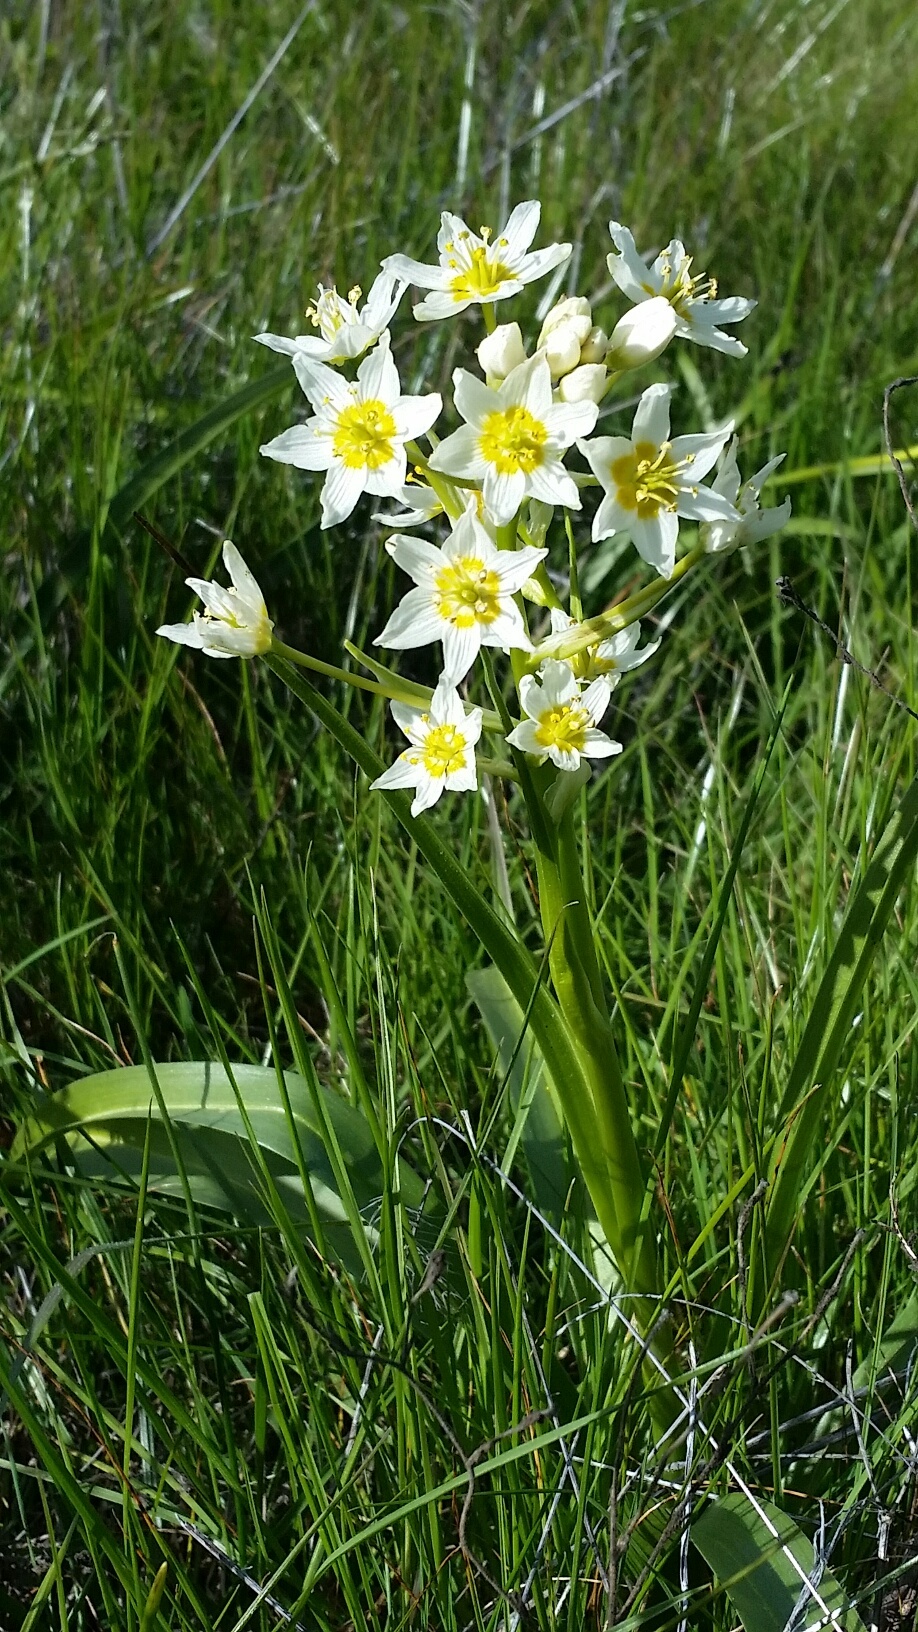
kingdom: Plantae
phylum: Tracheophyta
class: Liliopsida
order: Liliales
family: Melanthiaceae
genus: Toxicoscordion
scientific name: Toxicoscordion fremontii
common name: Fremont's death camas
